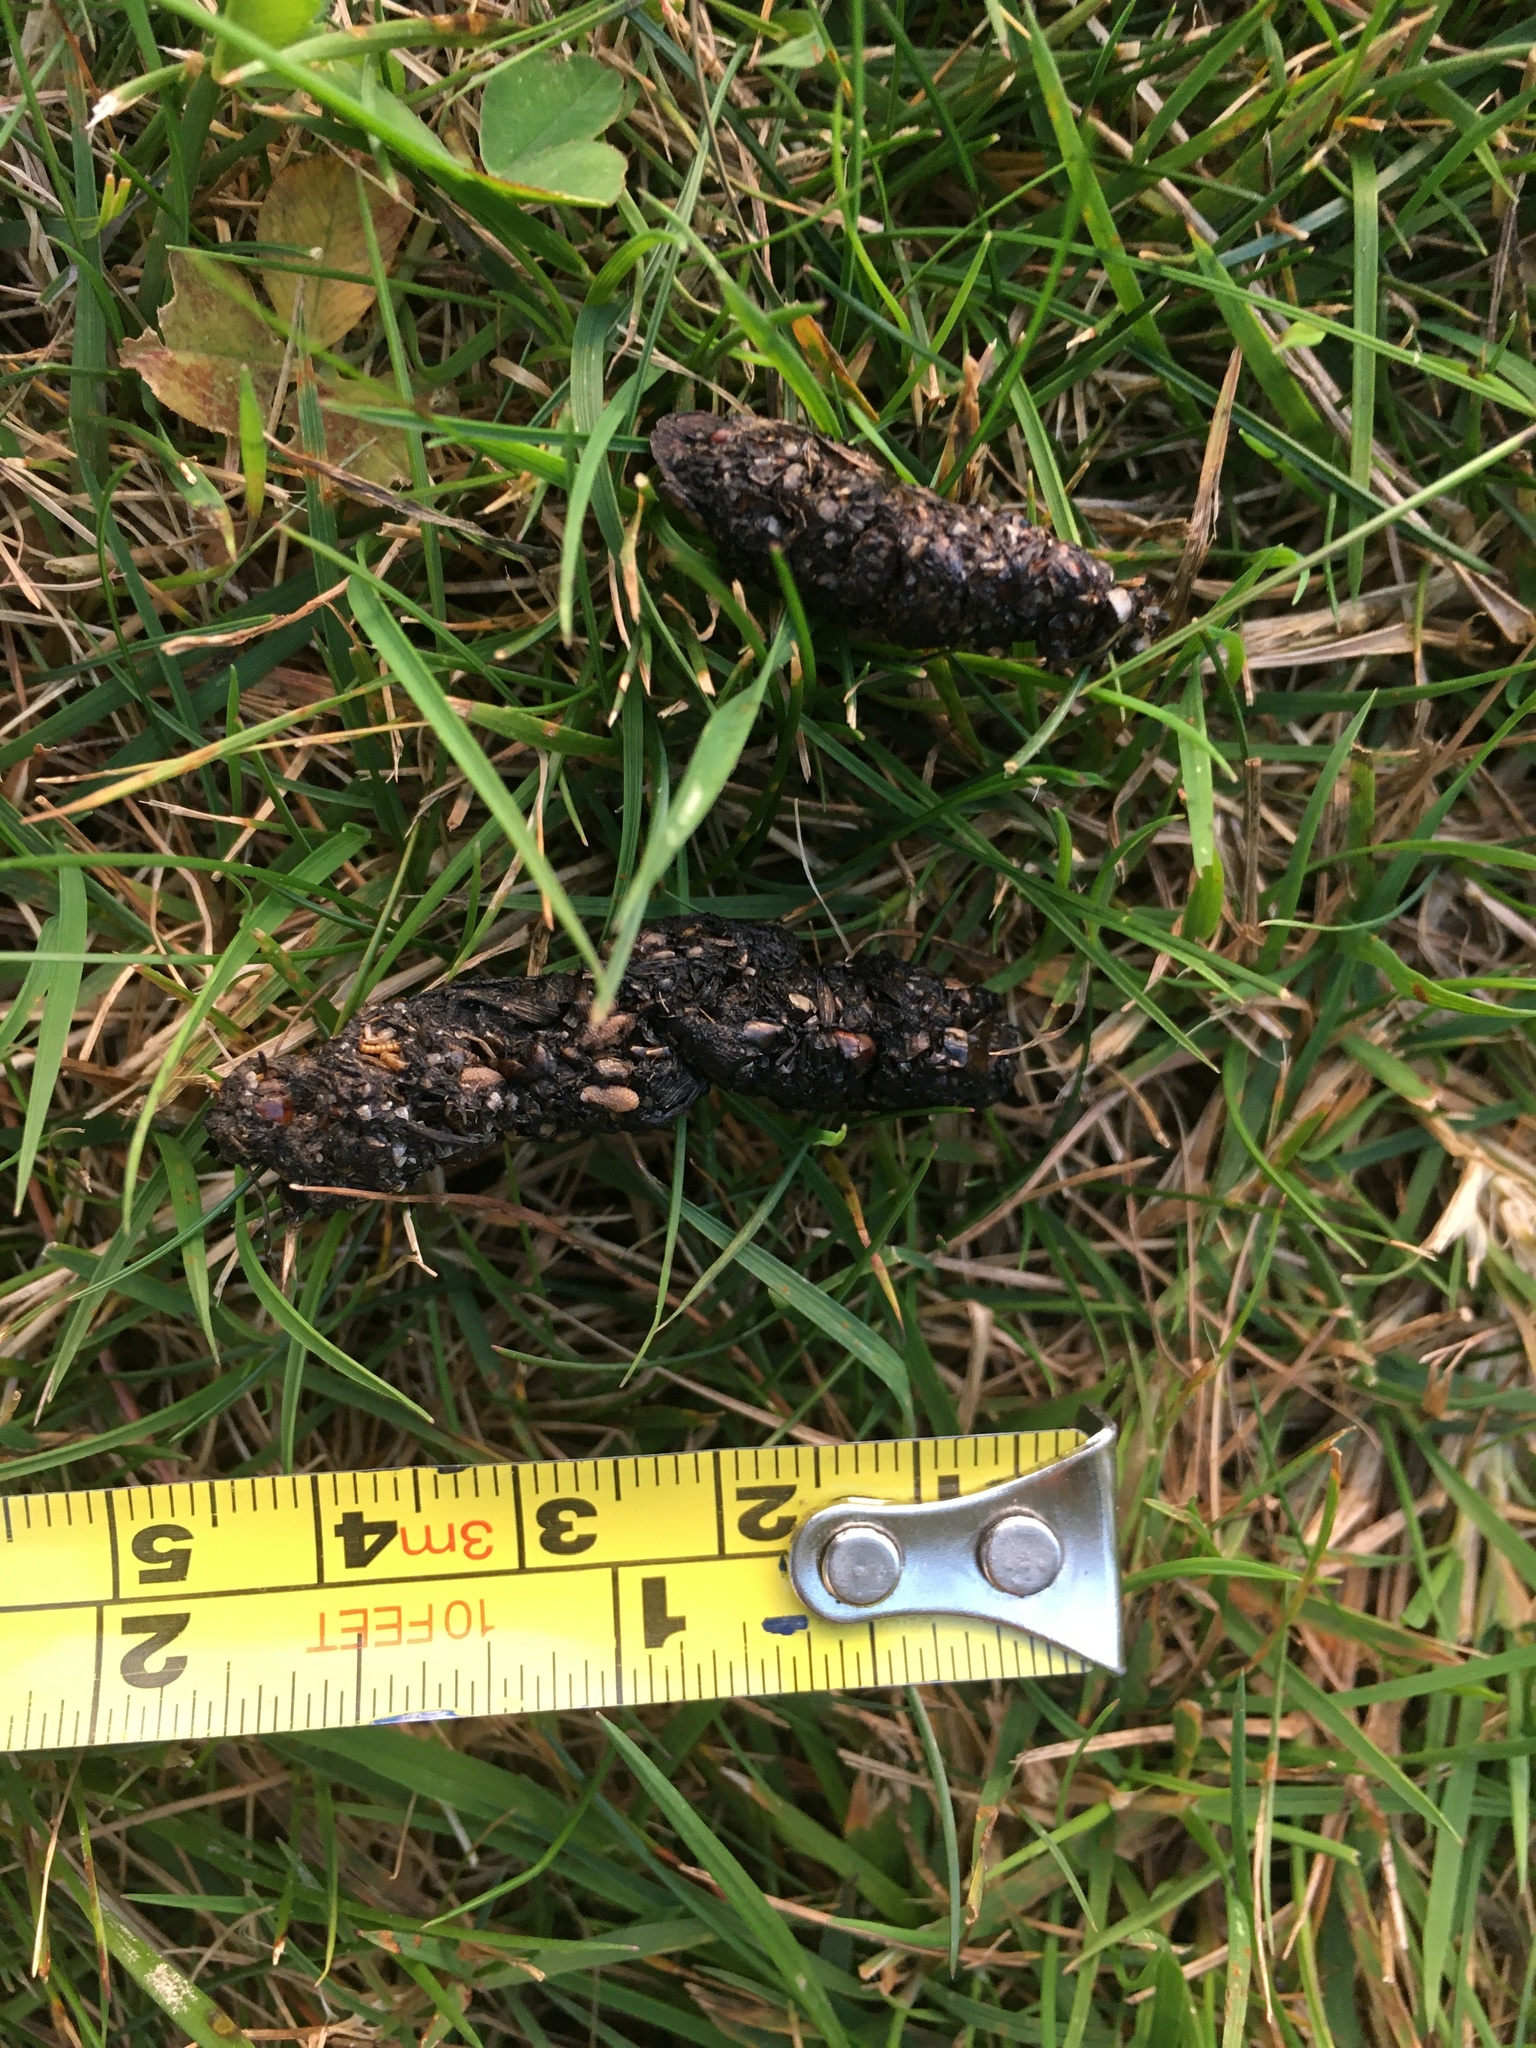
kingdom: Animalia
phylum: Chordata
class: Mammalia
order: Erinaceomorpha
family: Erinaceidae
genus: Erinaceus
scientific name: Erinaceus europaeus
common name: West european hedgehog
